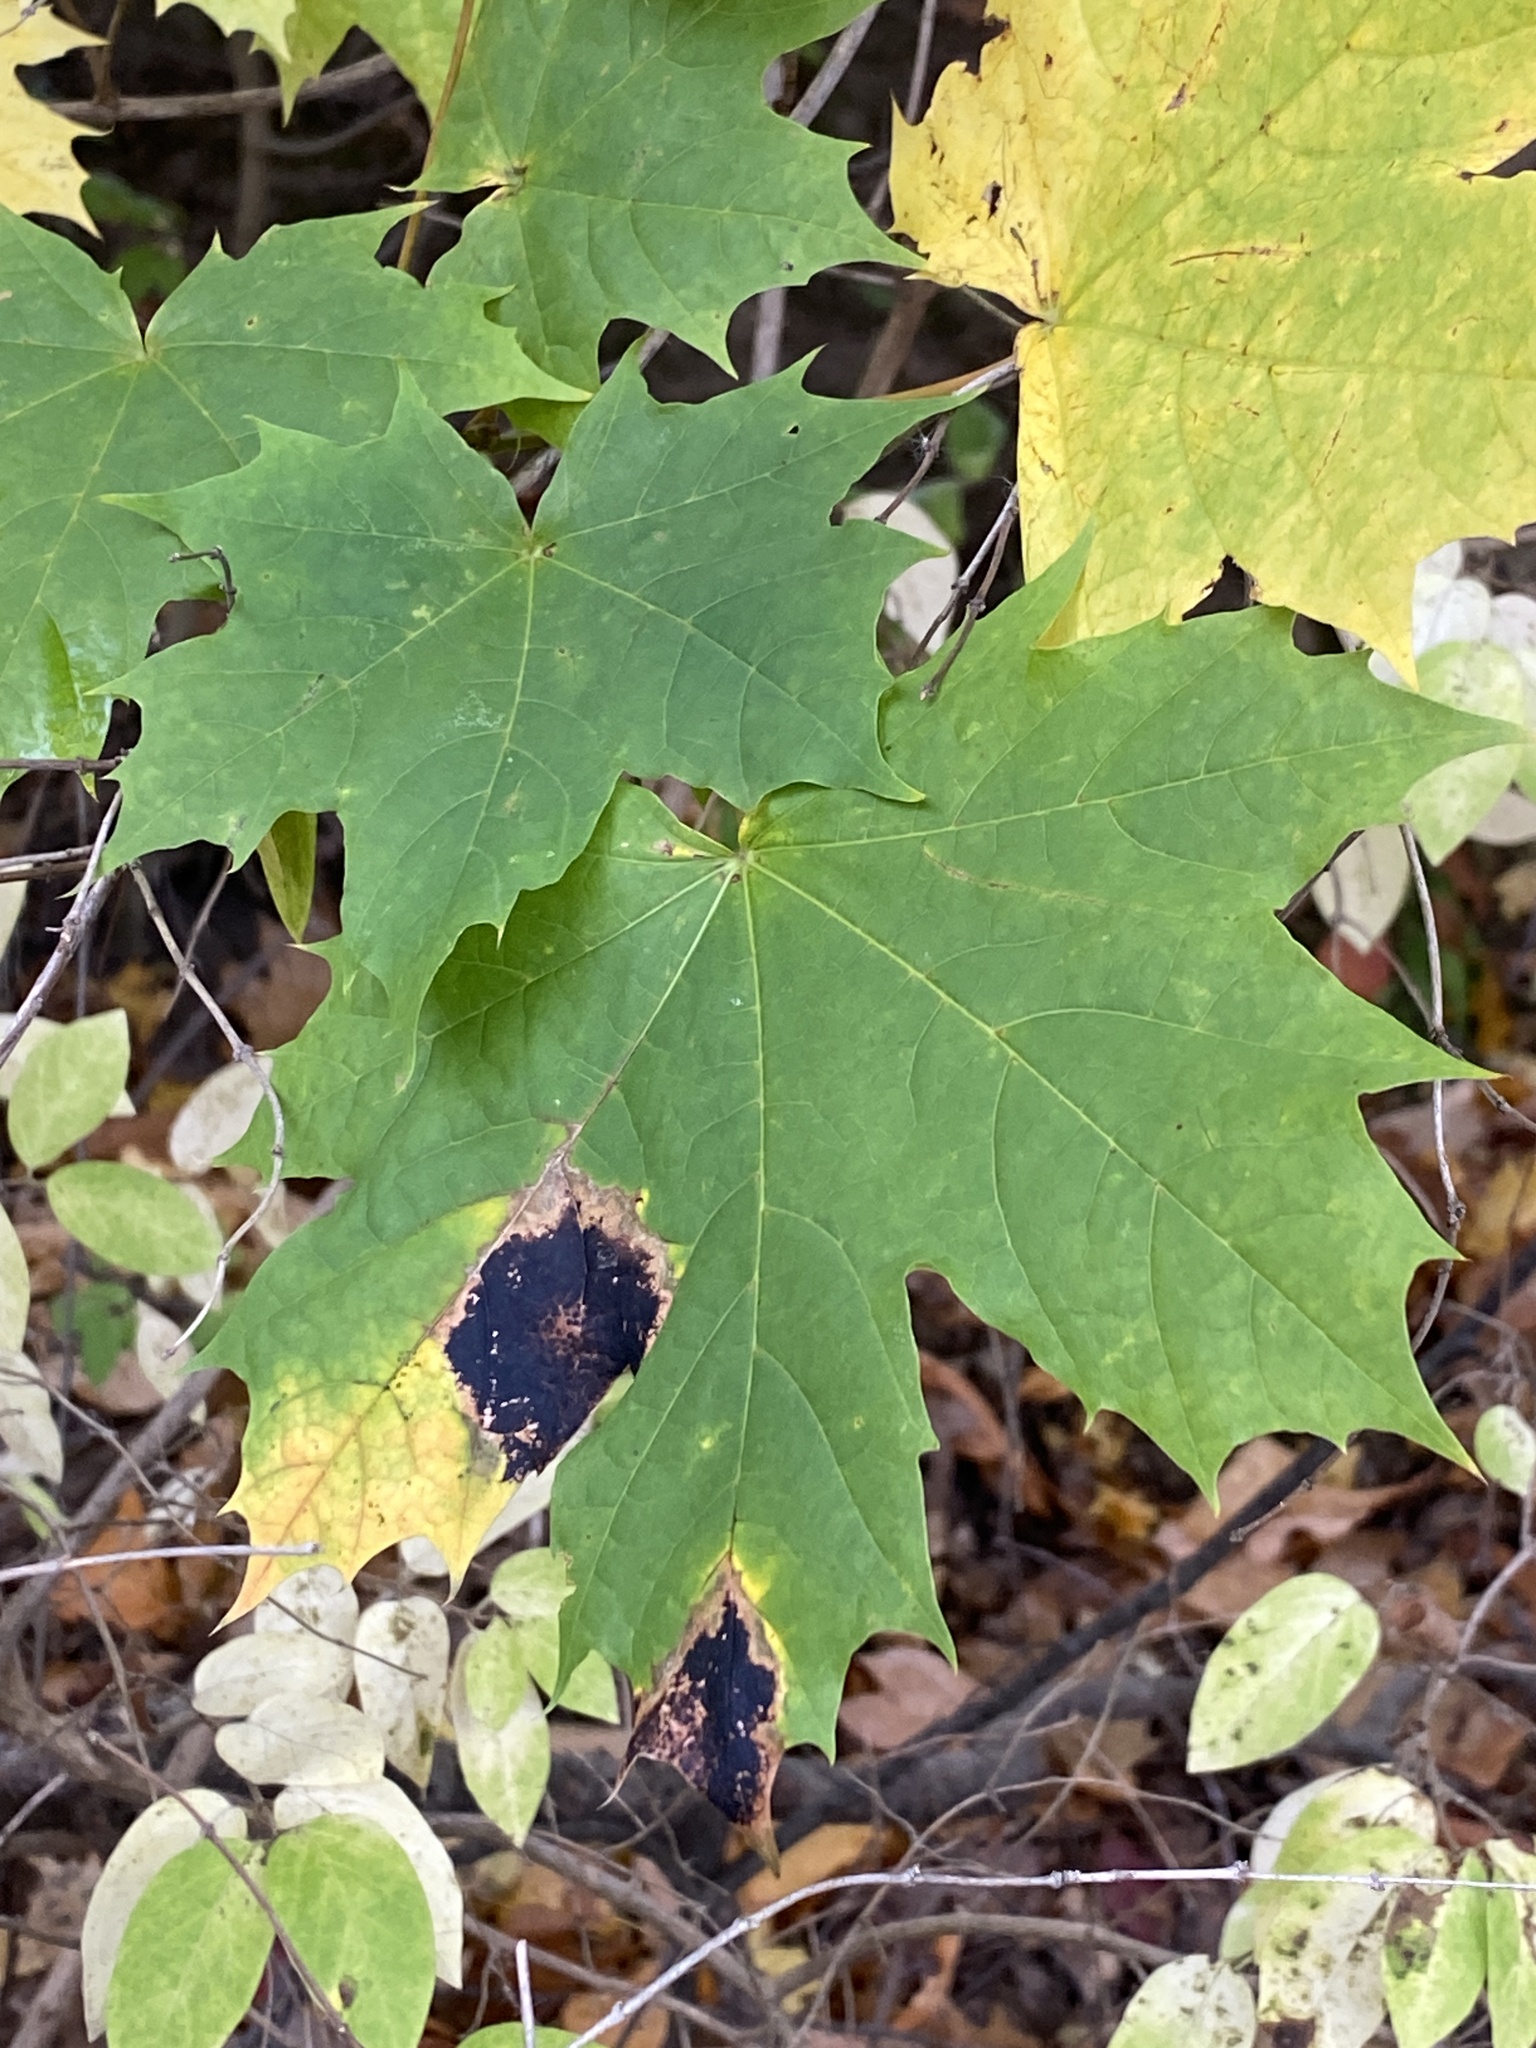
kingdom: Fungi
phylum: Ascomycota
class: Leotiomycetes
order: Rhytismatales
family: Rhytismataceae
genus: Rhytisma
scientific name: Rhytisma acerinum
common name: European tar spot
